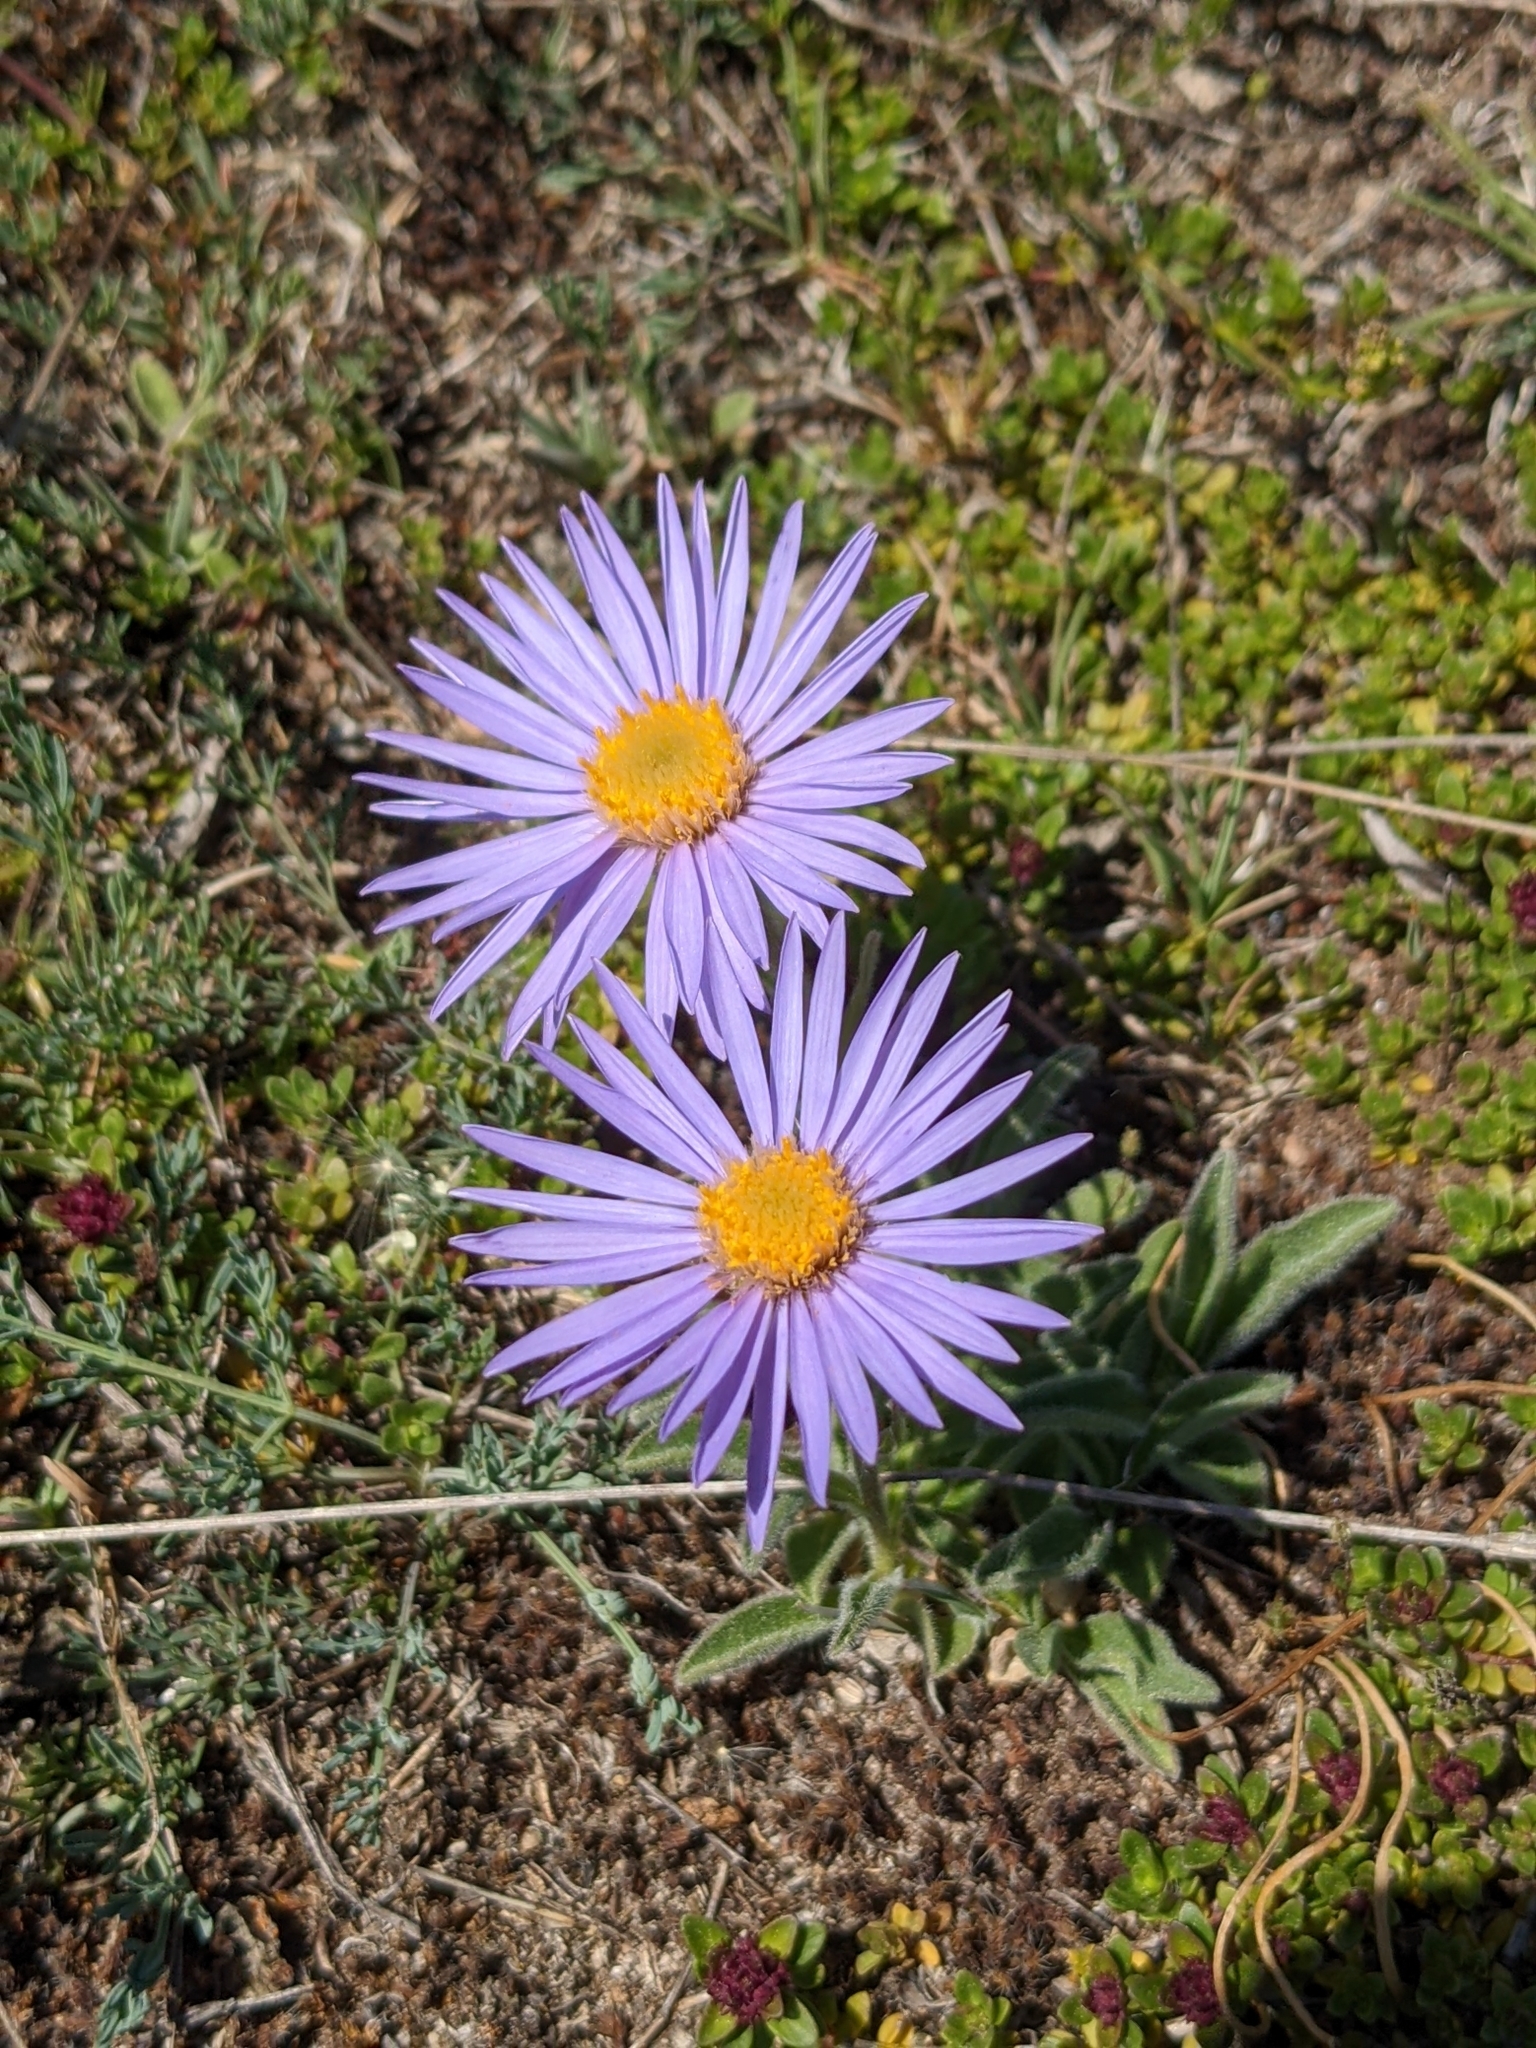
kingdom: Plantae
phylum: Tracheophyta
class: Magnoliopsida
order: Asterales
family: Asteraceae
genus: Aster
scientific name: Aster alpinus
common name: Alpine aster
